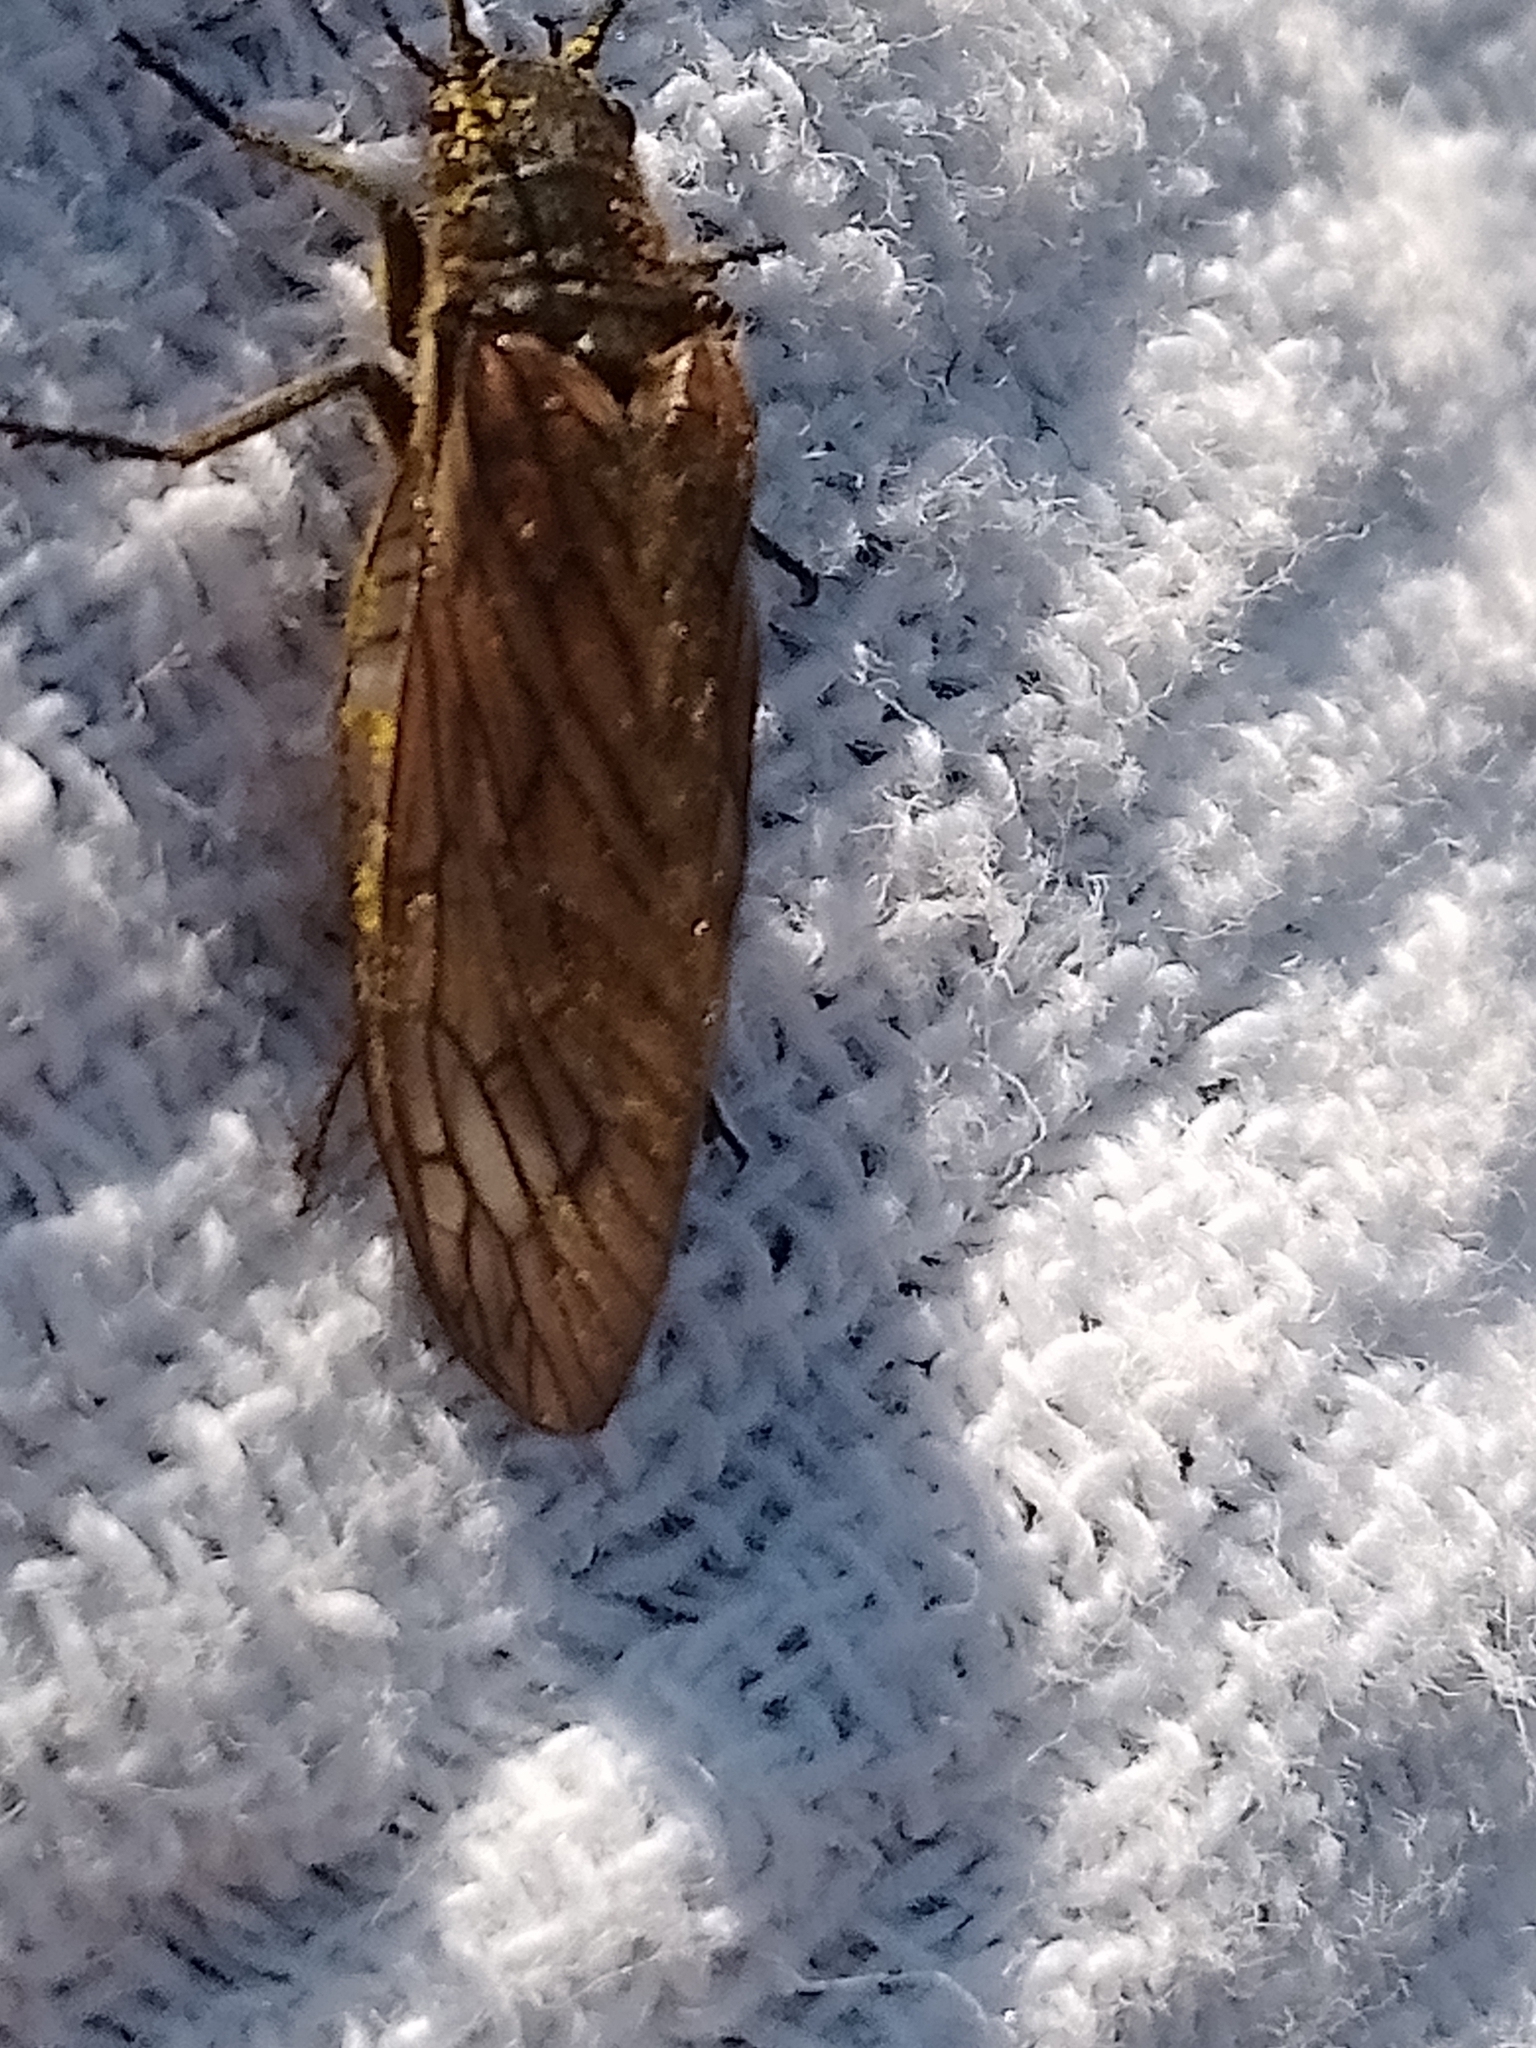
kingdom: Animalia
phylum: Arthropoda
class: Insecta
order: Megaloptera
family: Sialidae
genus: Sialis
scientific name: Sialis
